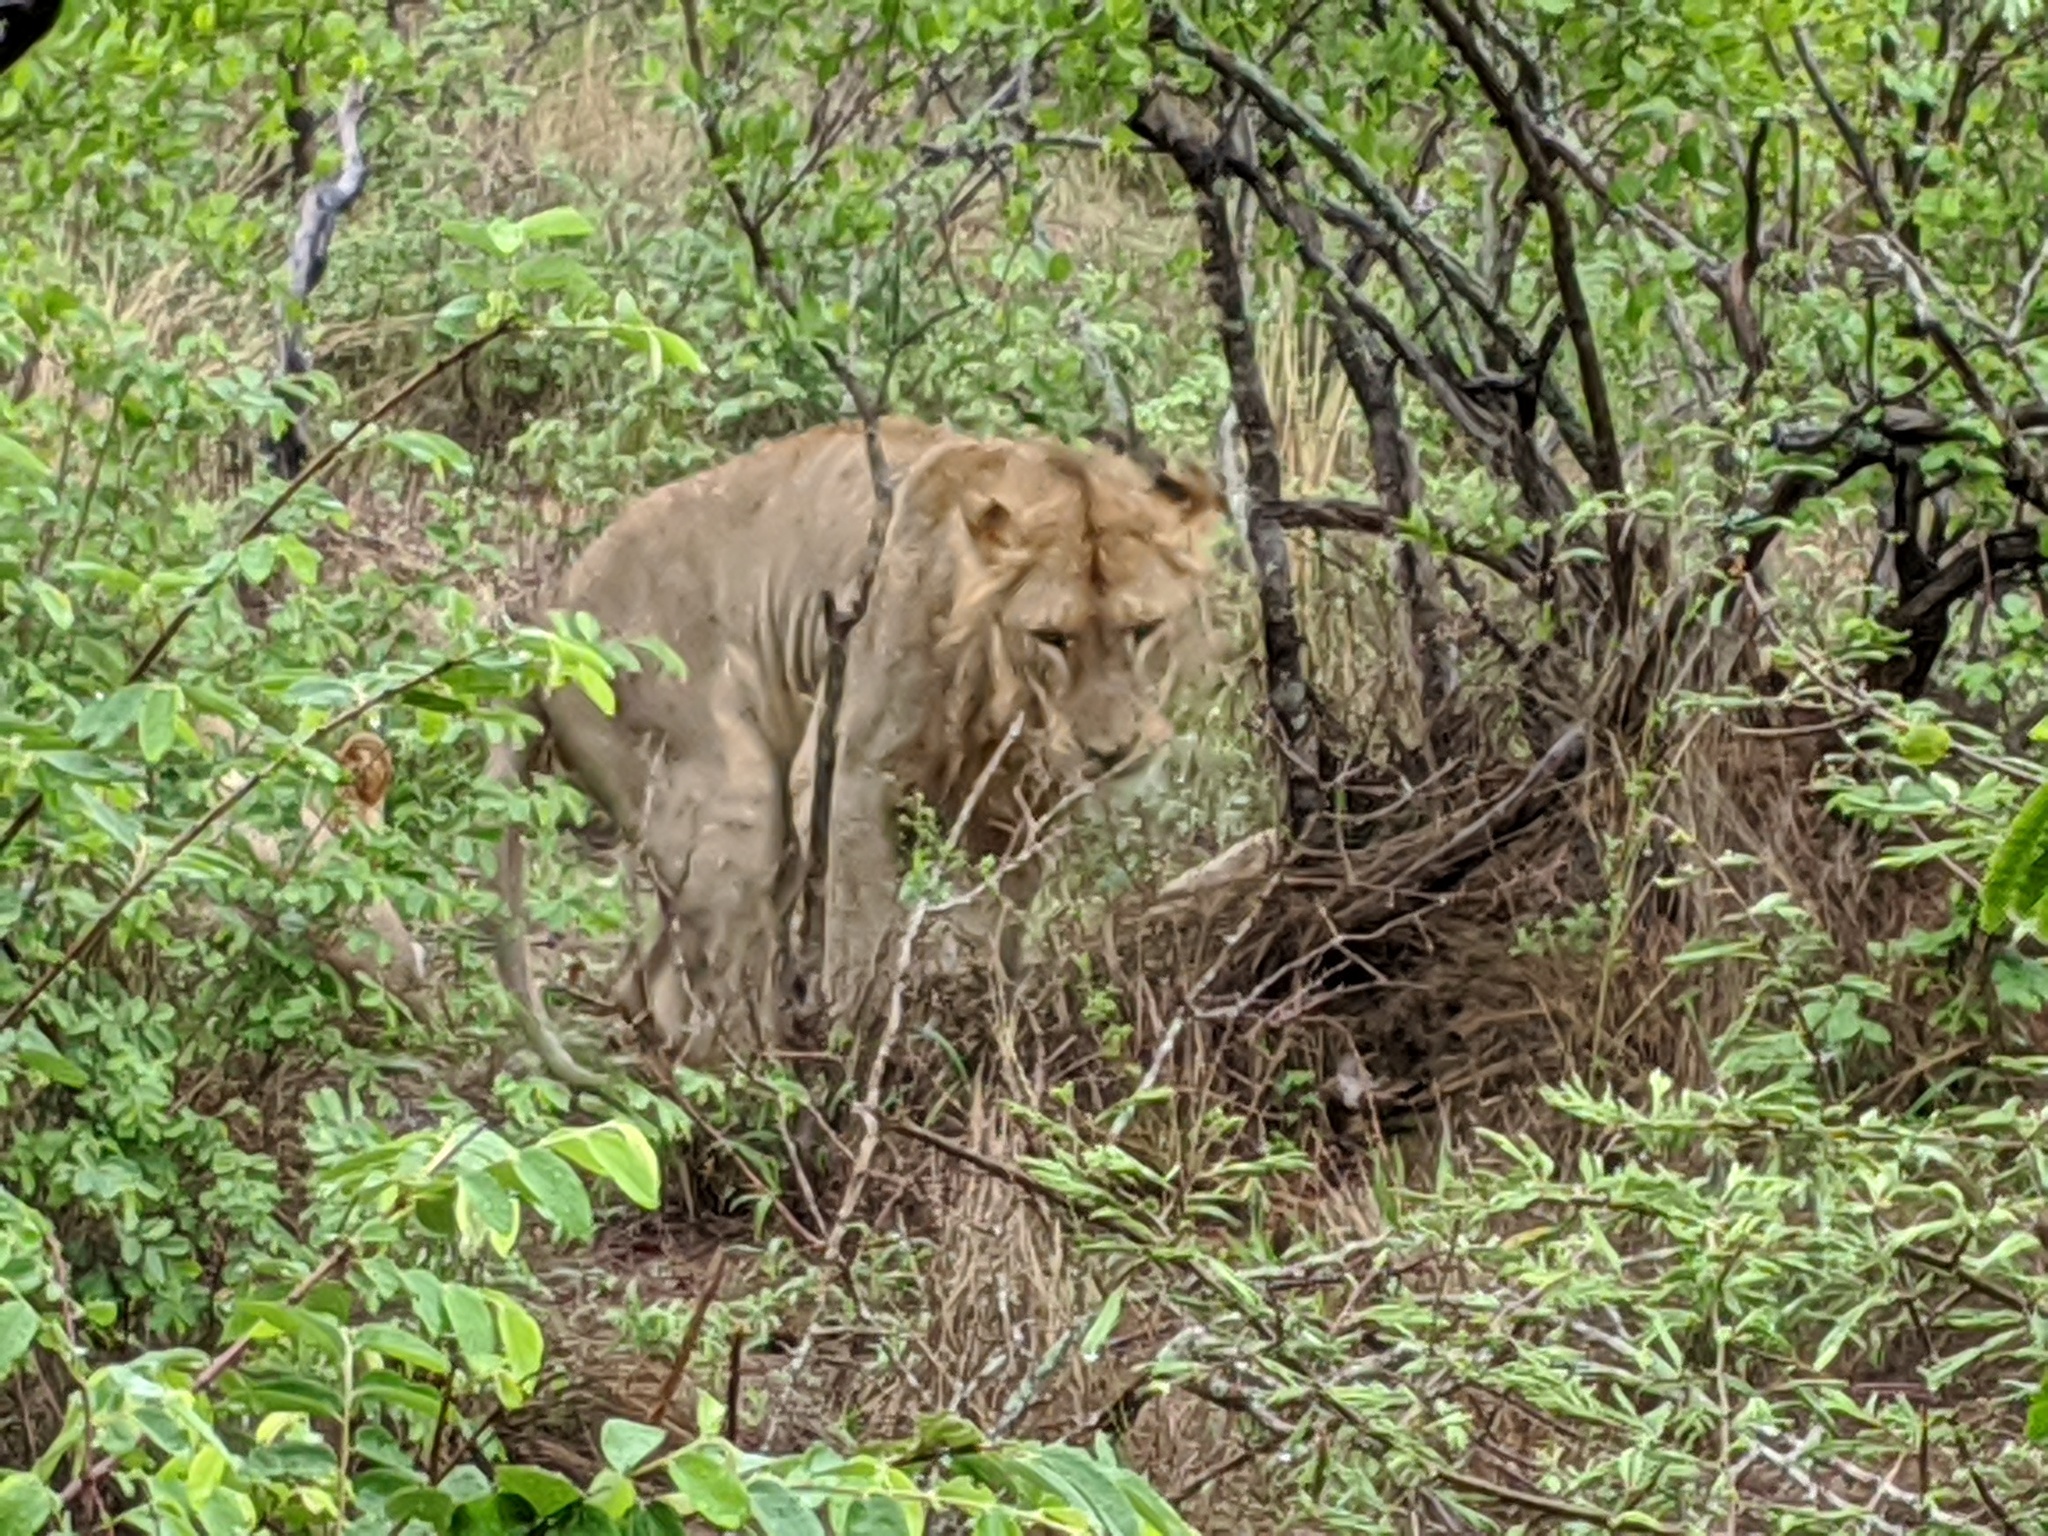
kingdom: Animalia
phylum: Chordata
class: Mammalia
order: Carnivora
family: Felidae
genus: Panthera
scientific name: Panthera leo
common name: Lion
